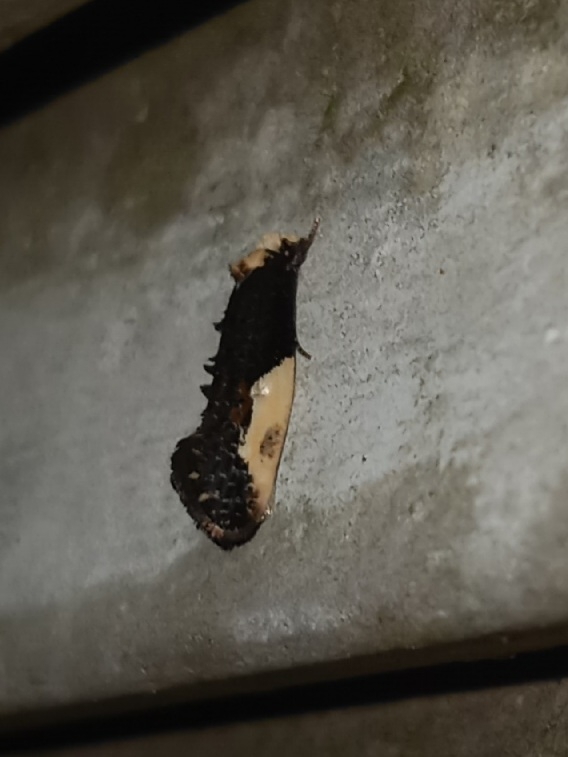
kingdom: Animalia
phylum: Arthropoda
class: Insecta
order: Lepidoptera
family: Tineidae
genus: Monopis
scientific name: Monopis longella
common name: Pavlovski's monopis moth
